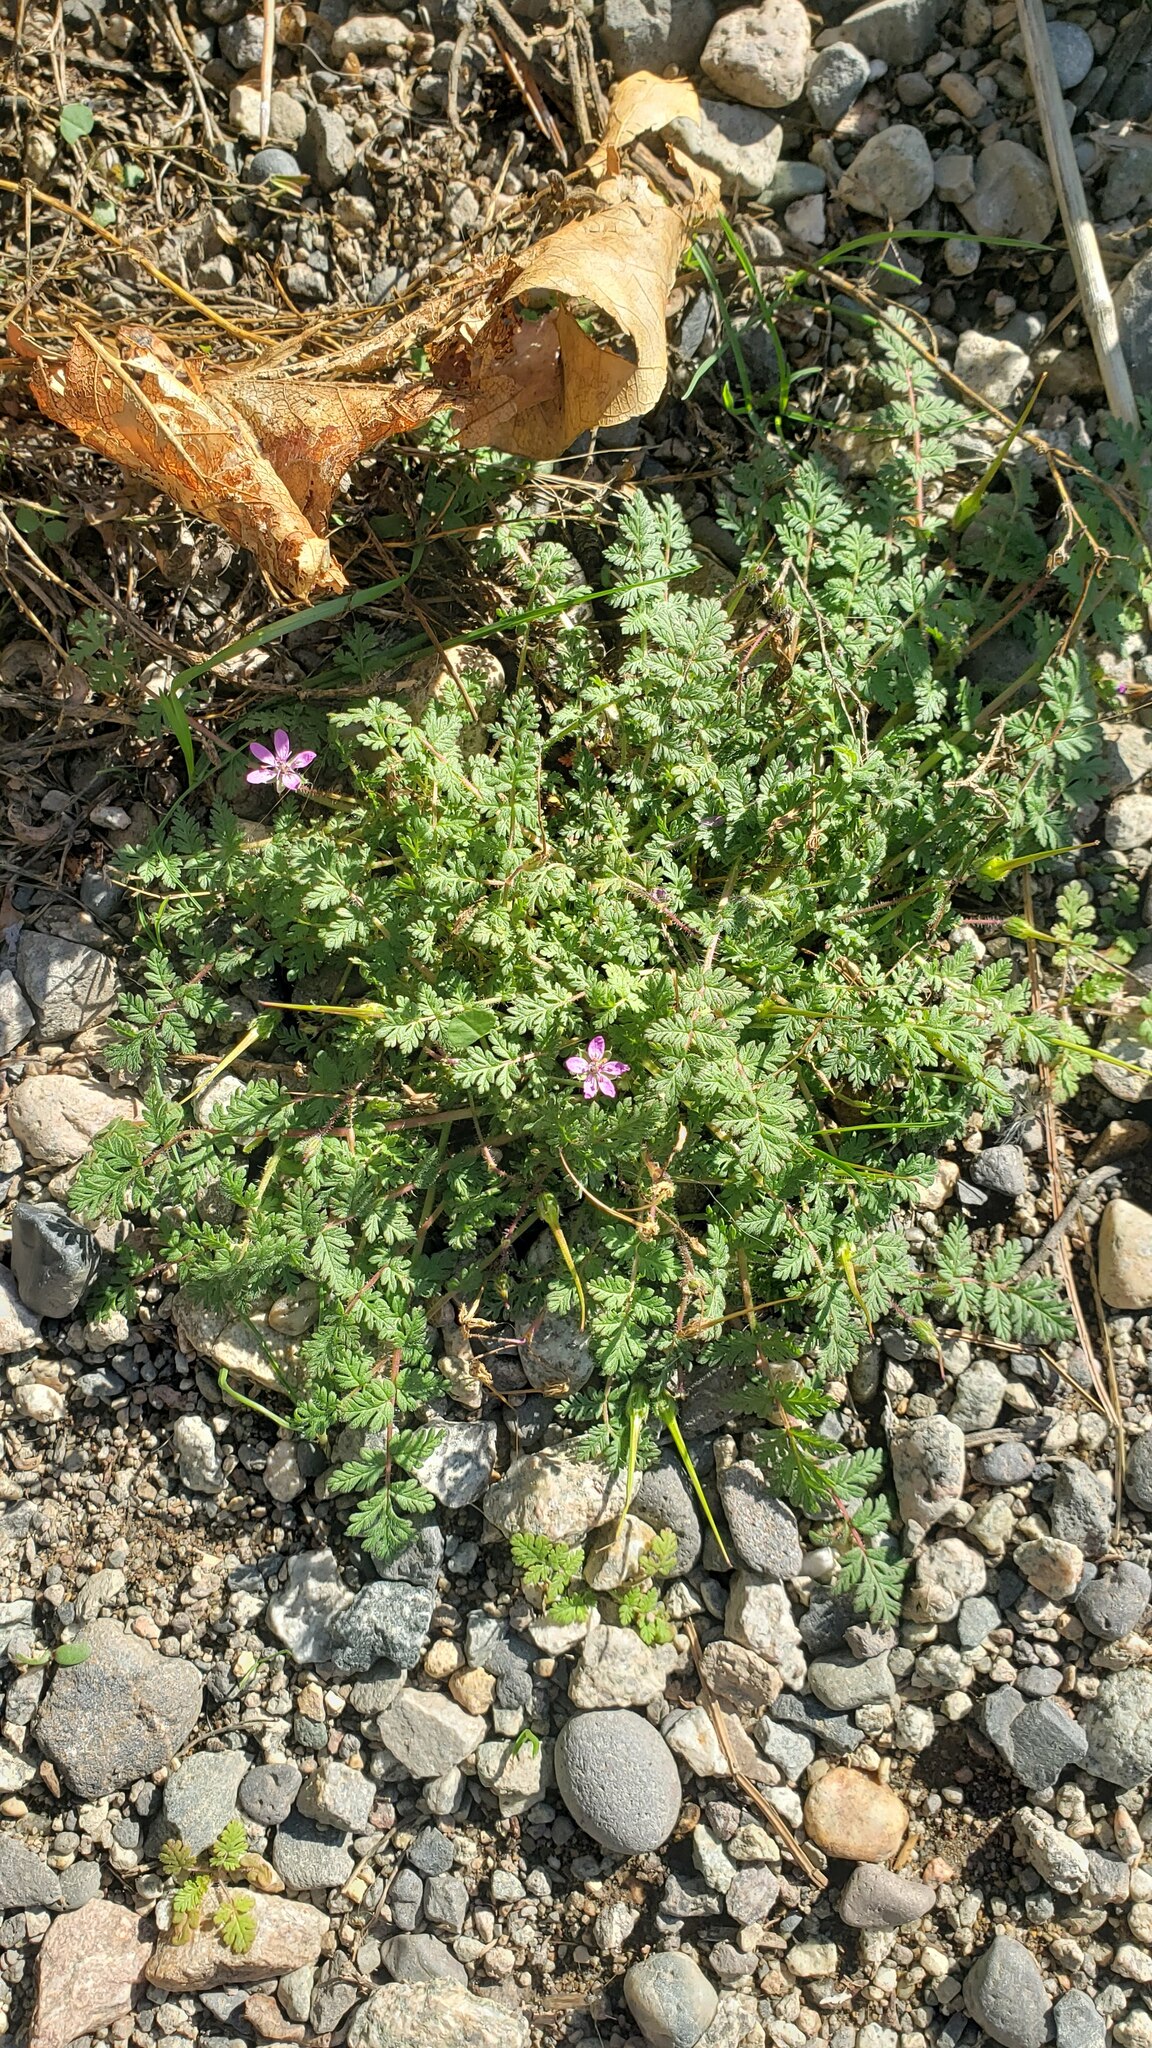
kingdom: Plantae
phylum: Tracheophyta
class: Magnoliopsida
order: Geraniales
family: Geraniaceae
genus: Erodium
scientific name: Erodium cicutarium
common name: Common stork's-bill
